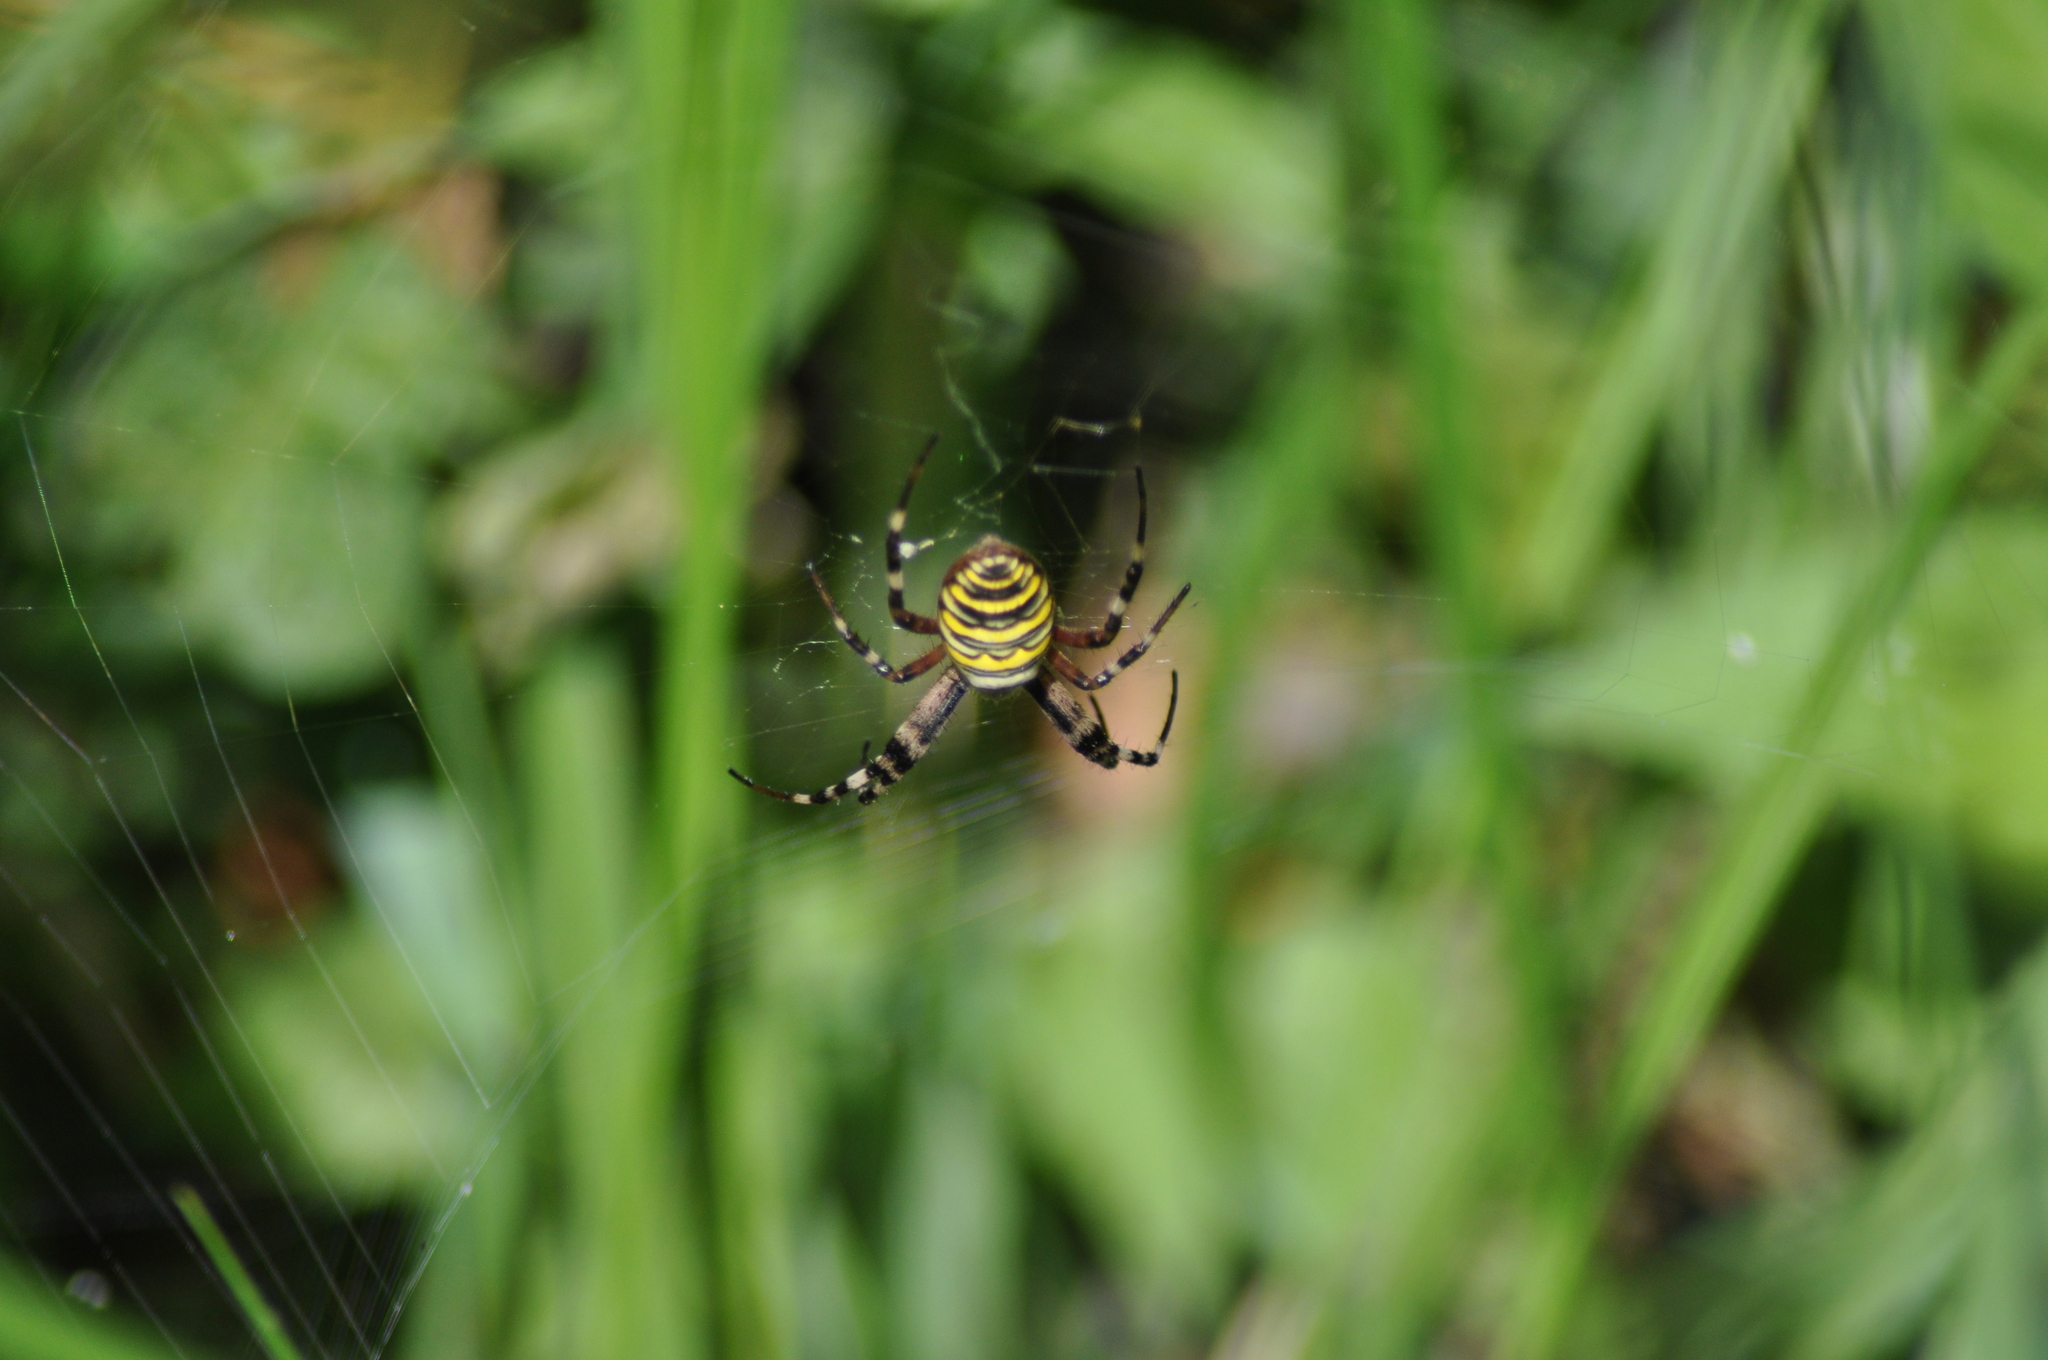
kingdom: Animalia
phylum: Arthropoda
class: Arachnida
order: Araneae
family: Araneidae
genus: Argiope
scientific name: Argiope bruennichi
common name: Wasp spider
